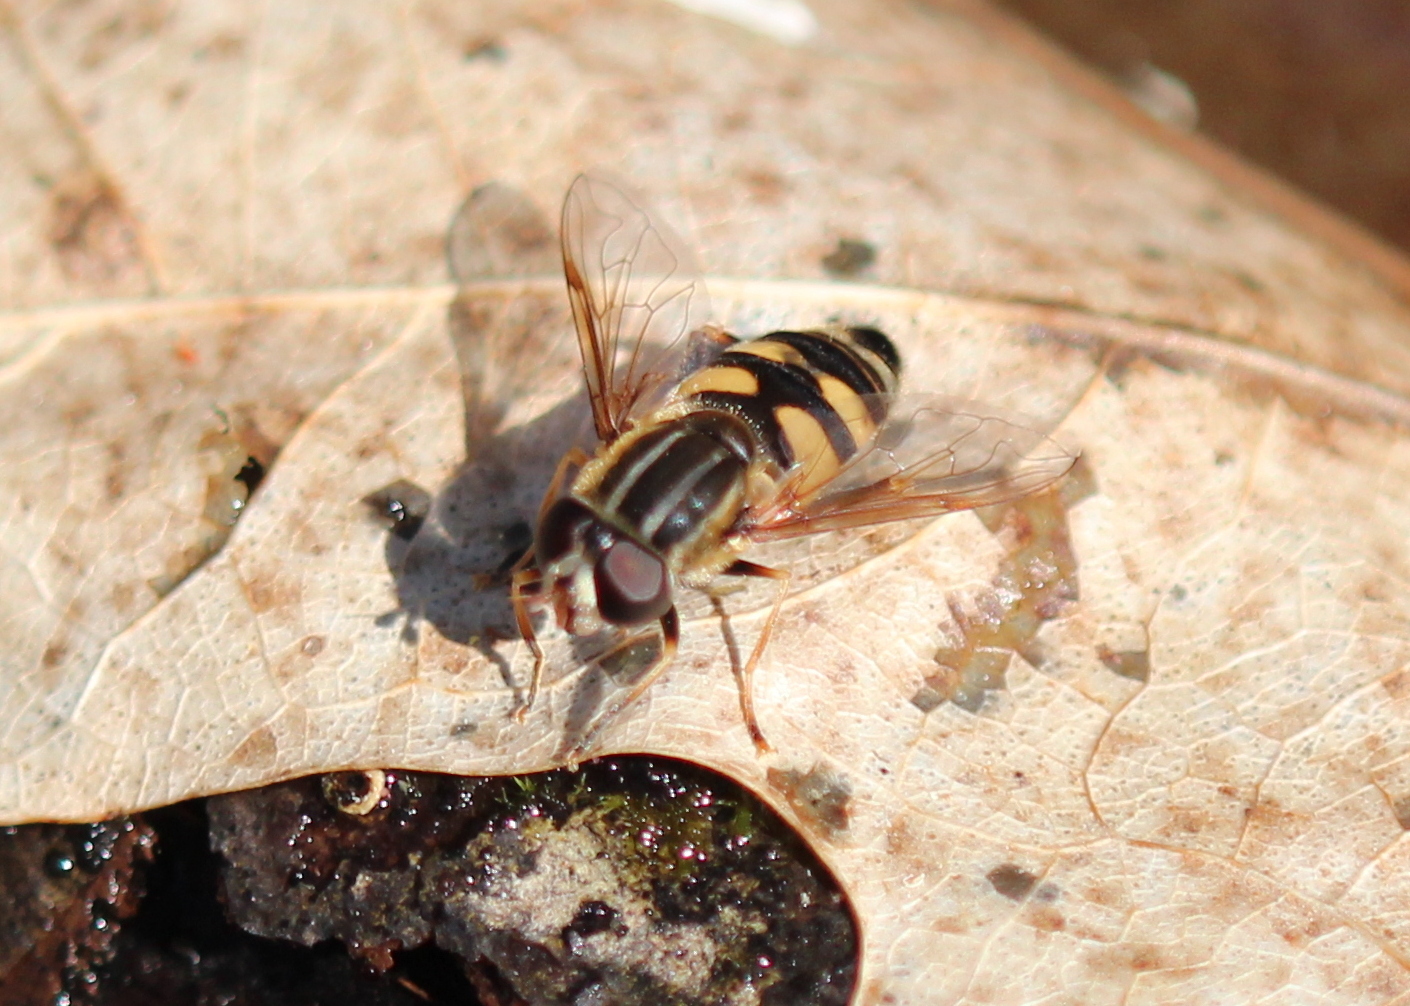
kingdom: Animalia
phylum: Arthropoda
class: Insecta
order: Diptera
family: Syrphidae
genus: Helophilus
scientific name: Helophilus fasciatus
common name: Narrow-headed marsh fly
